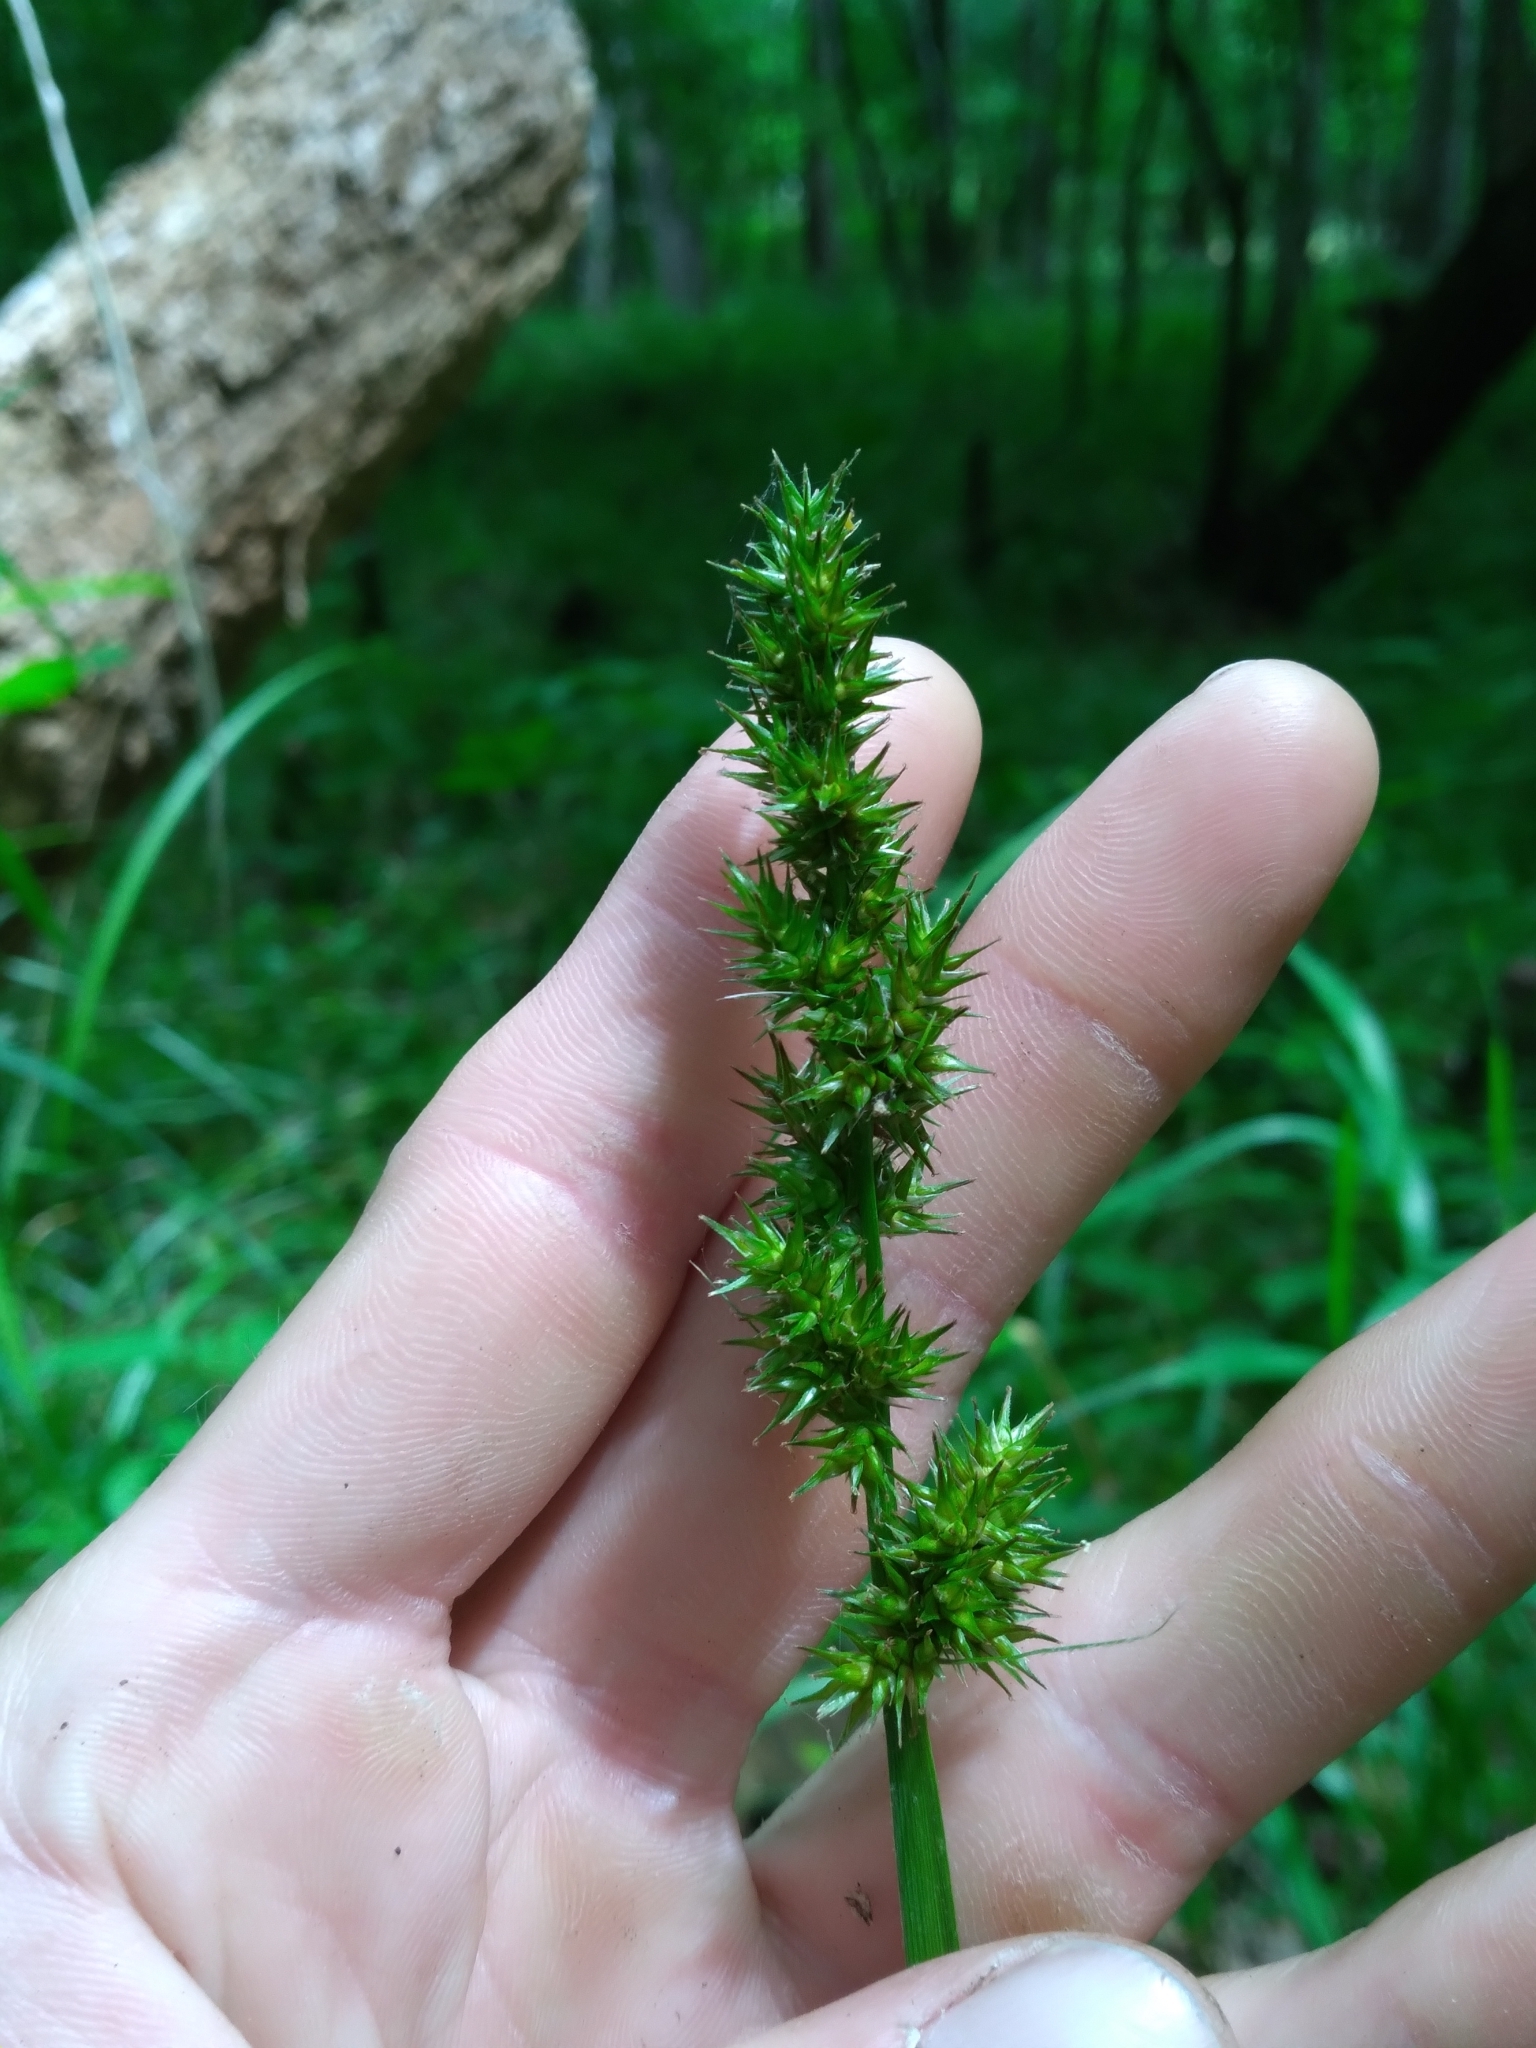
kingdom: Plantae
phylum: Tracheophyta
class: Liliopsida
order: Poales
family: Cyperaceae
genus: Carex
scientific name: Carex stipata
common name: Awl-fruited sedge
